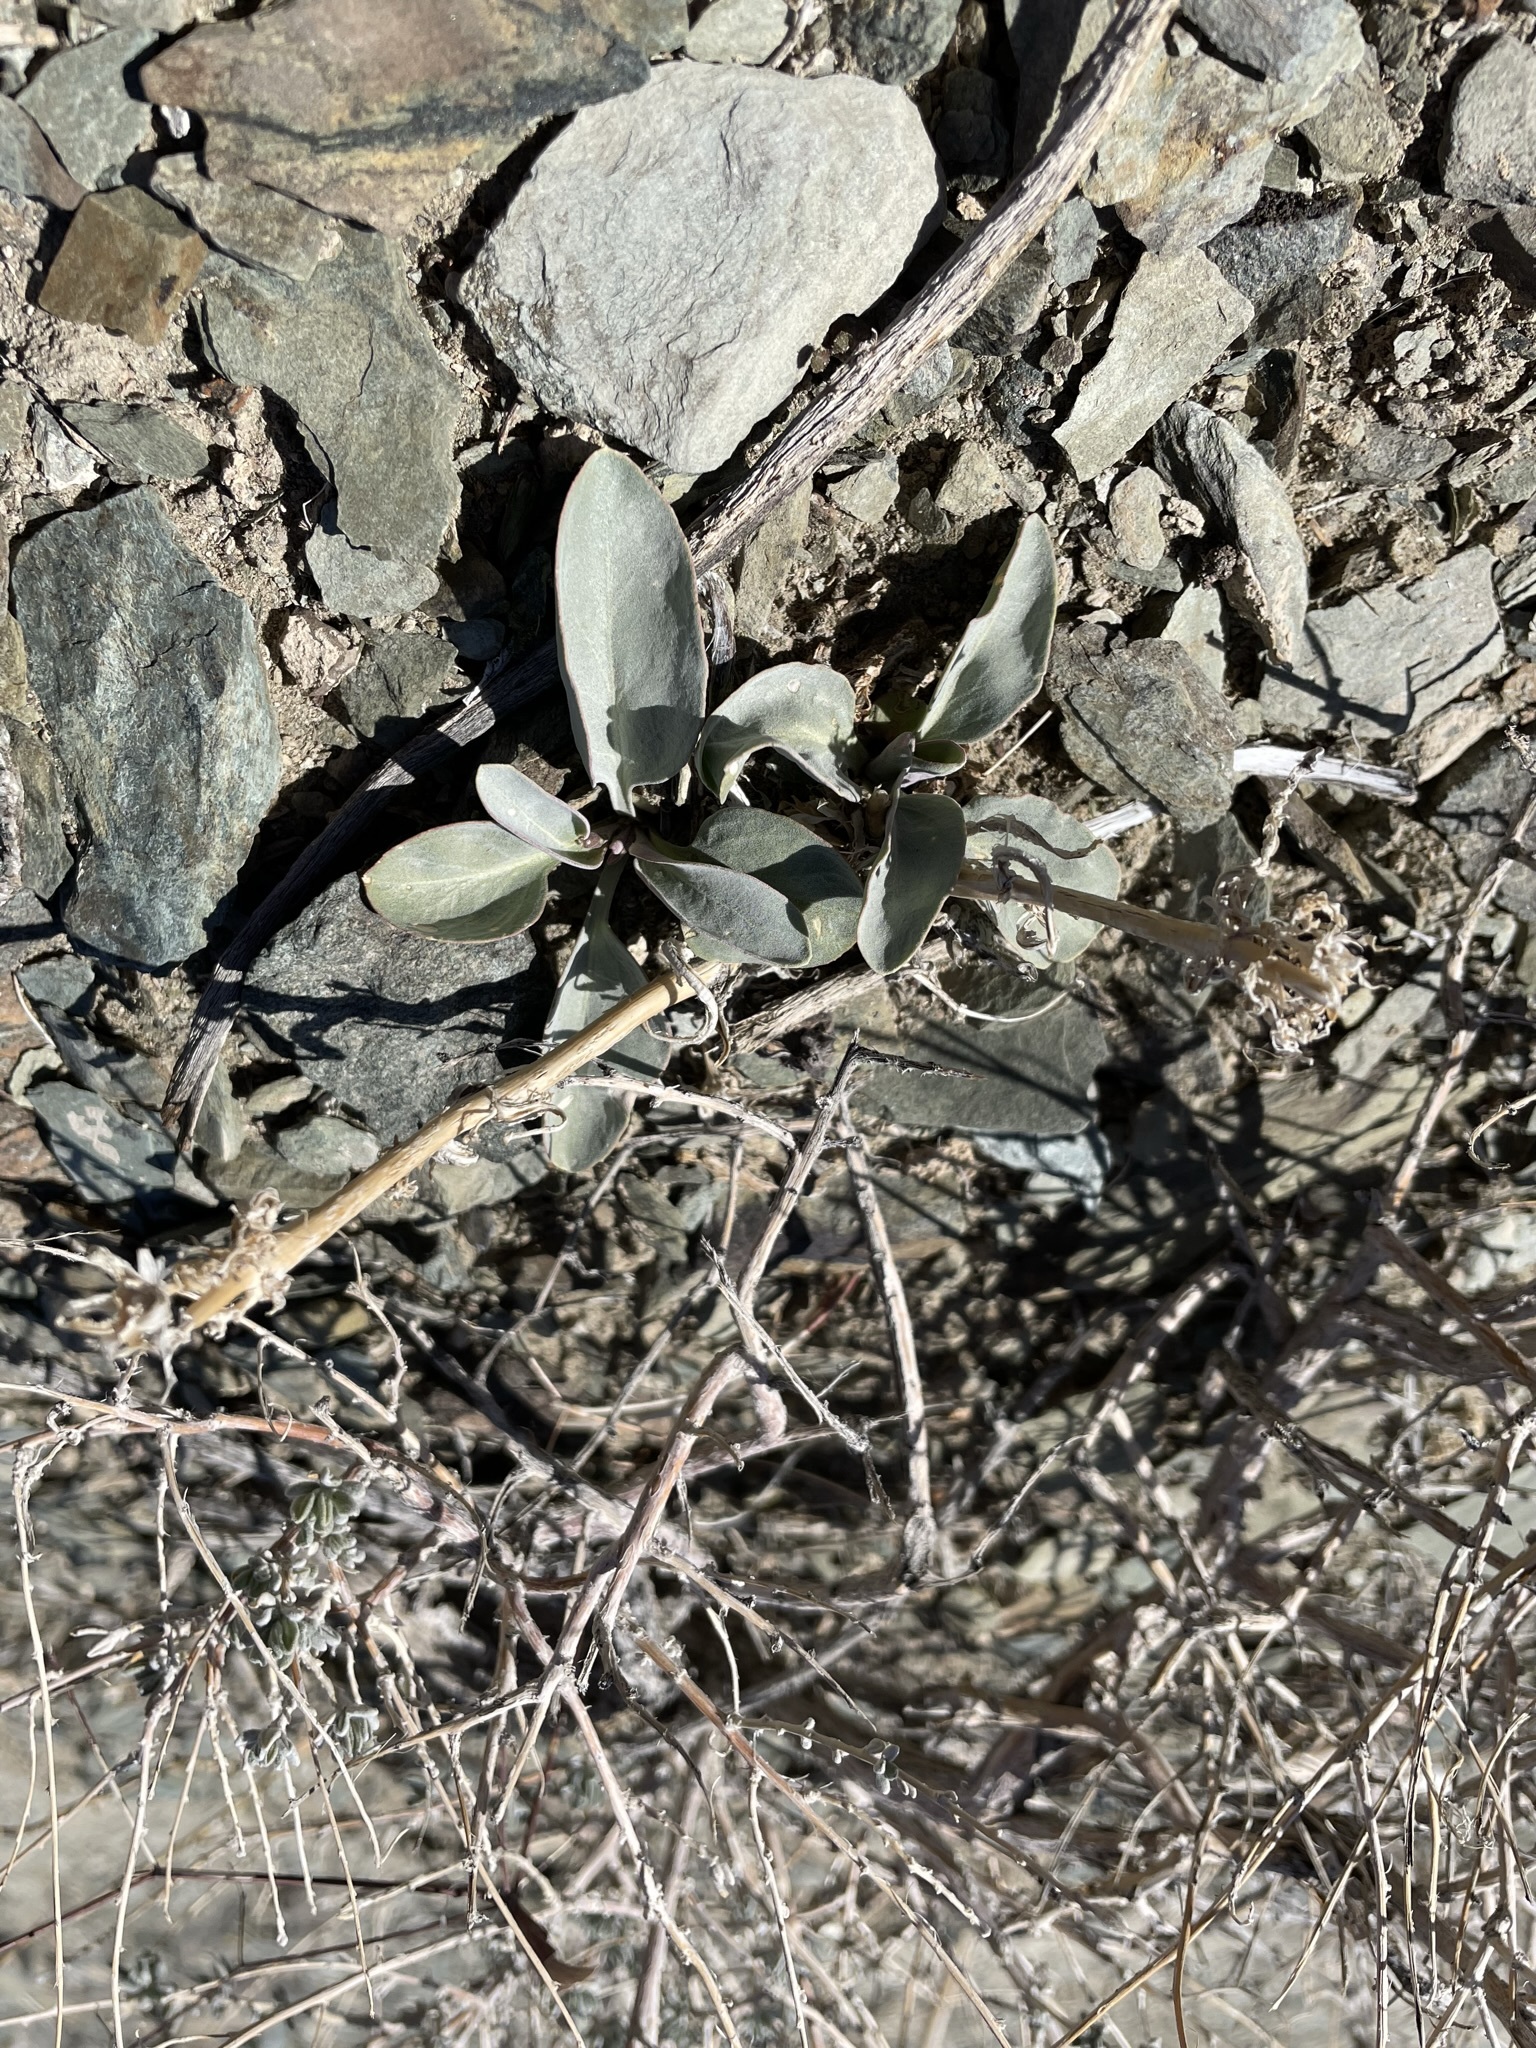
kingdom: Plantae
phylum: Tracheophyta
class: Magnoliopsida
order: Lamiales
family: Plantaginaceae
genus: Penstemon
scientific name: Penstemon monoensis
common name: Mono penstemon
